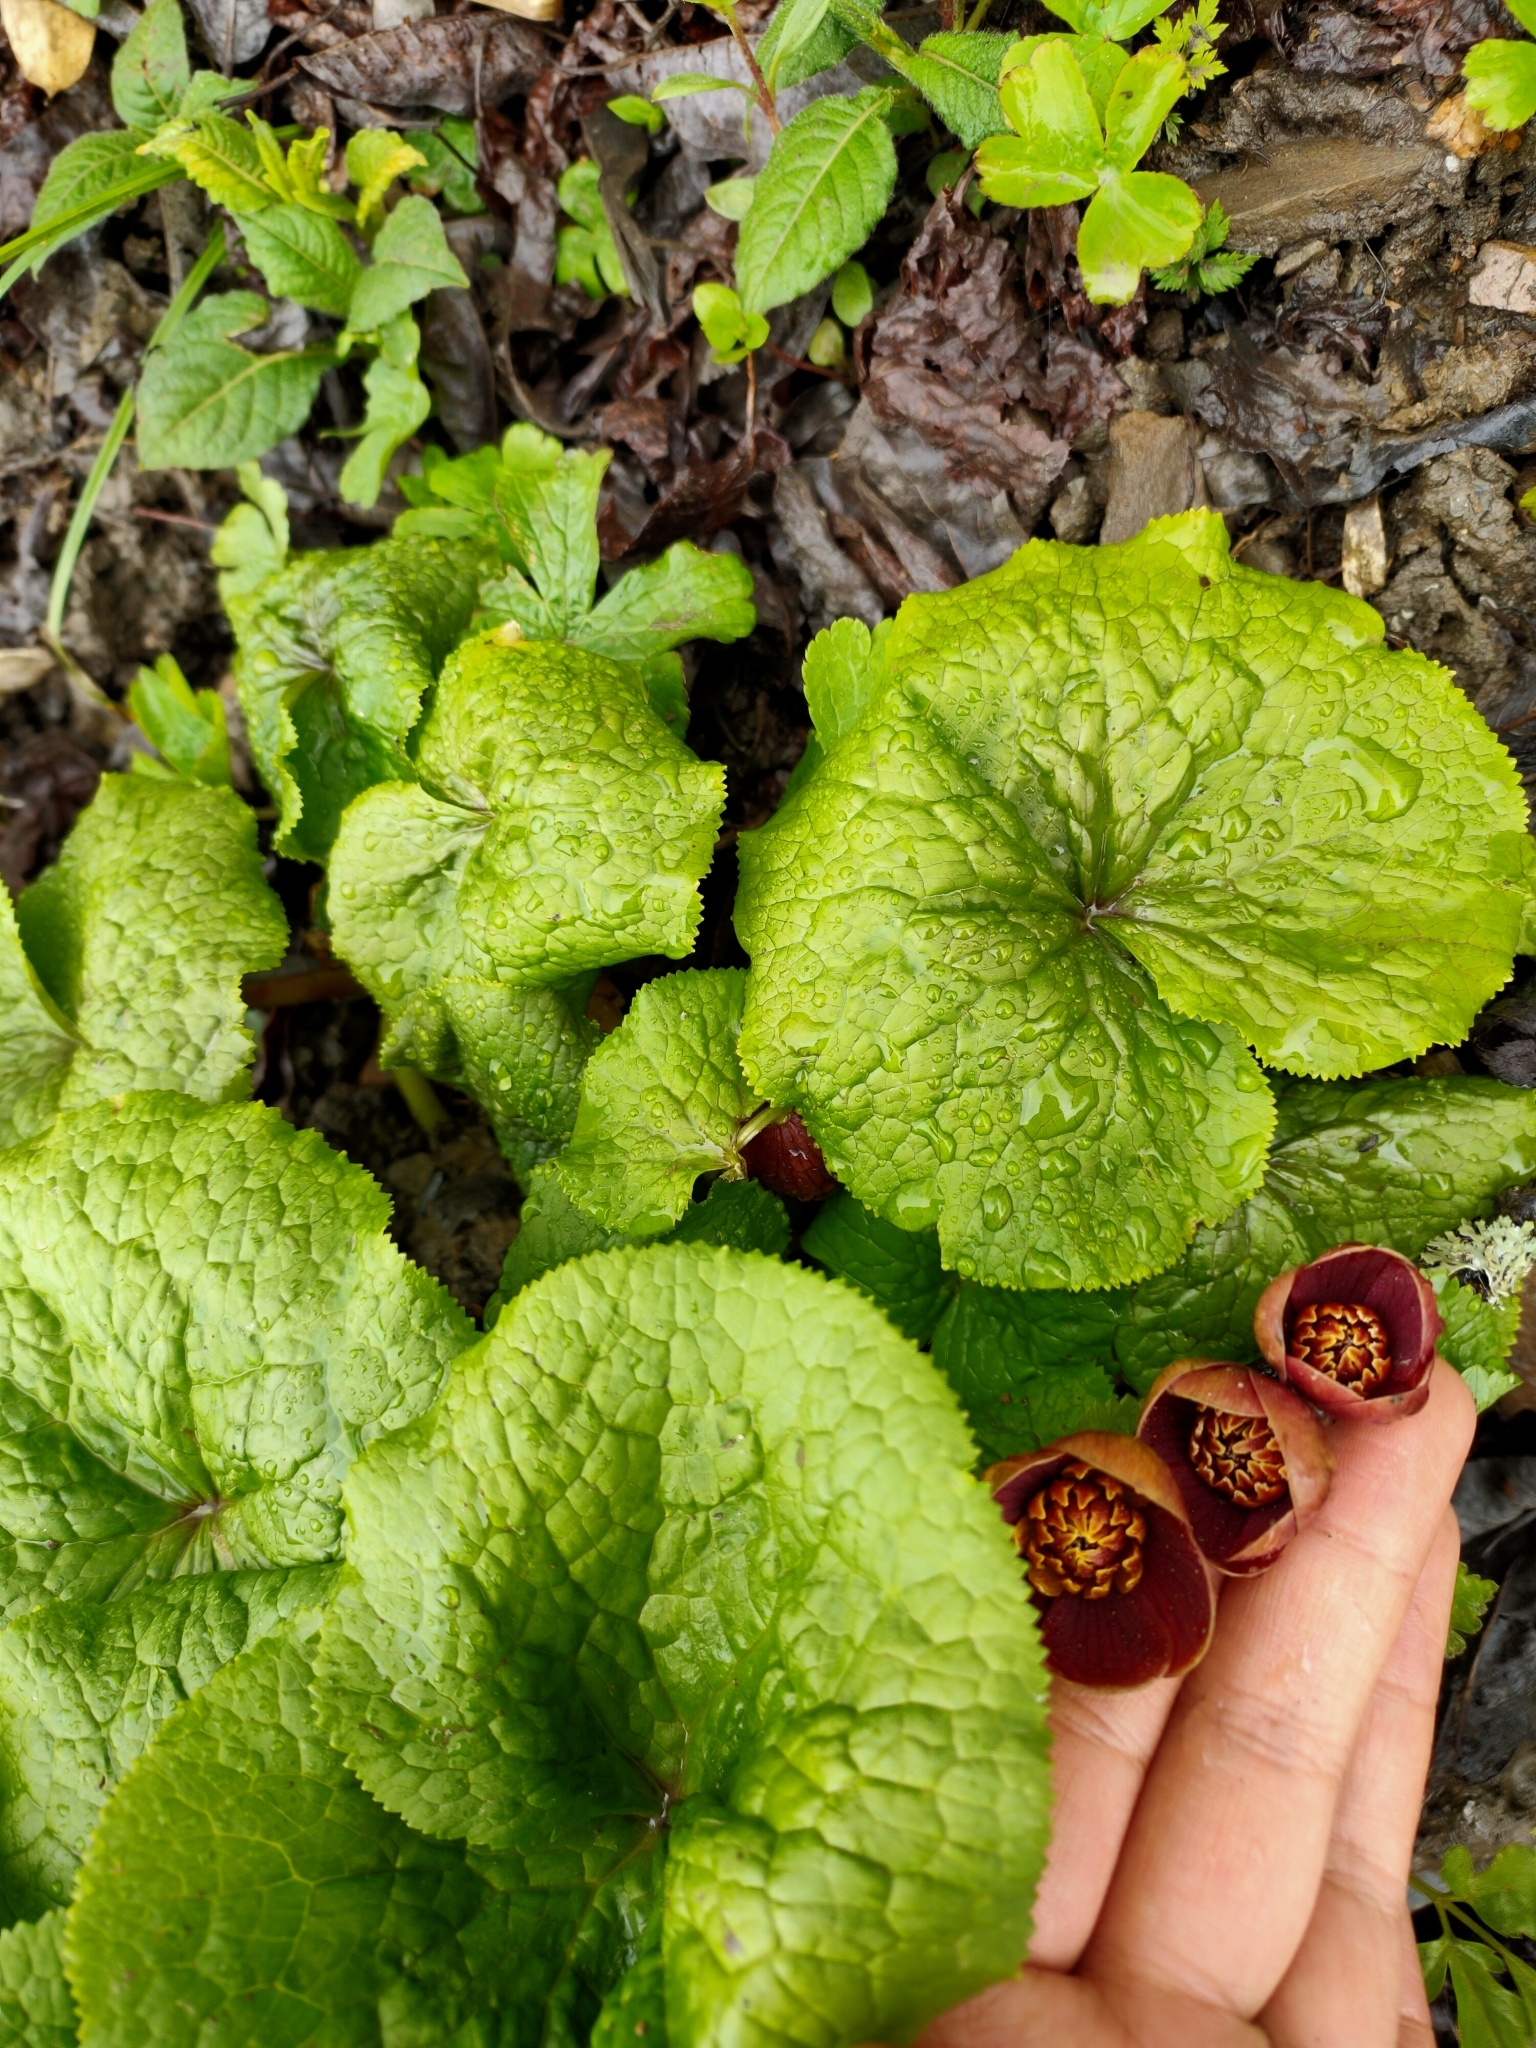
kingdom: Plantae
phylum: Tracheophyta
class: Magnoliopsida
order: Ranunculales
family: Ranunculaceae
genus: Caltha
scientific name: Caltha dysosmoides
